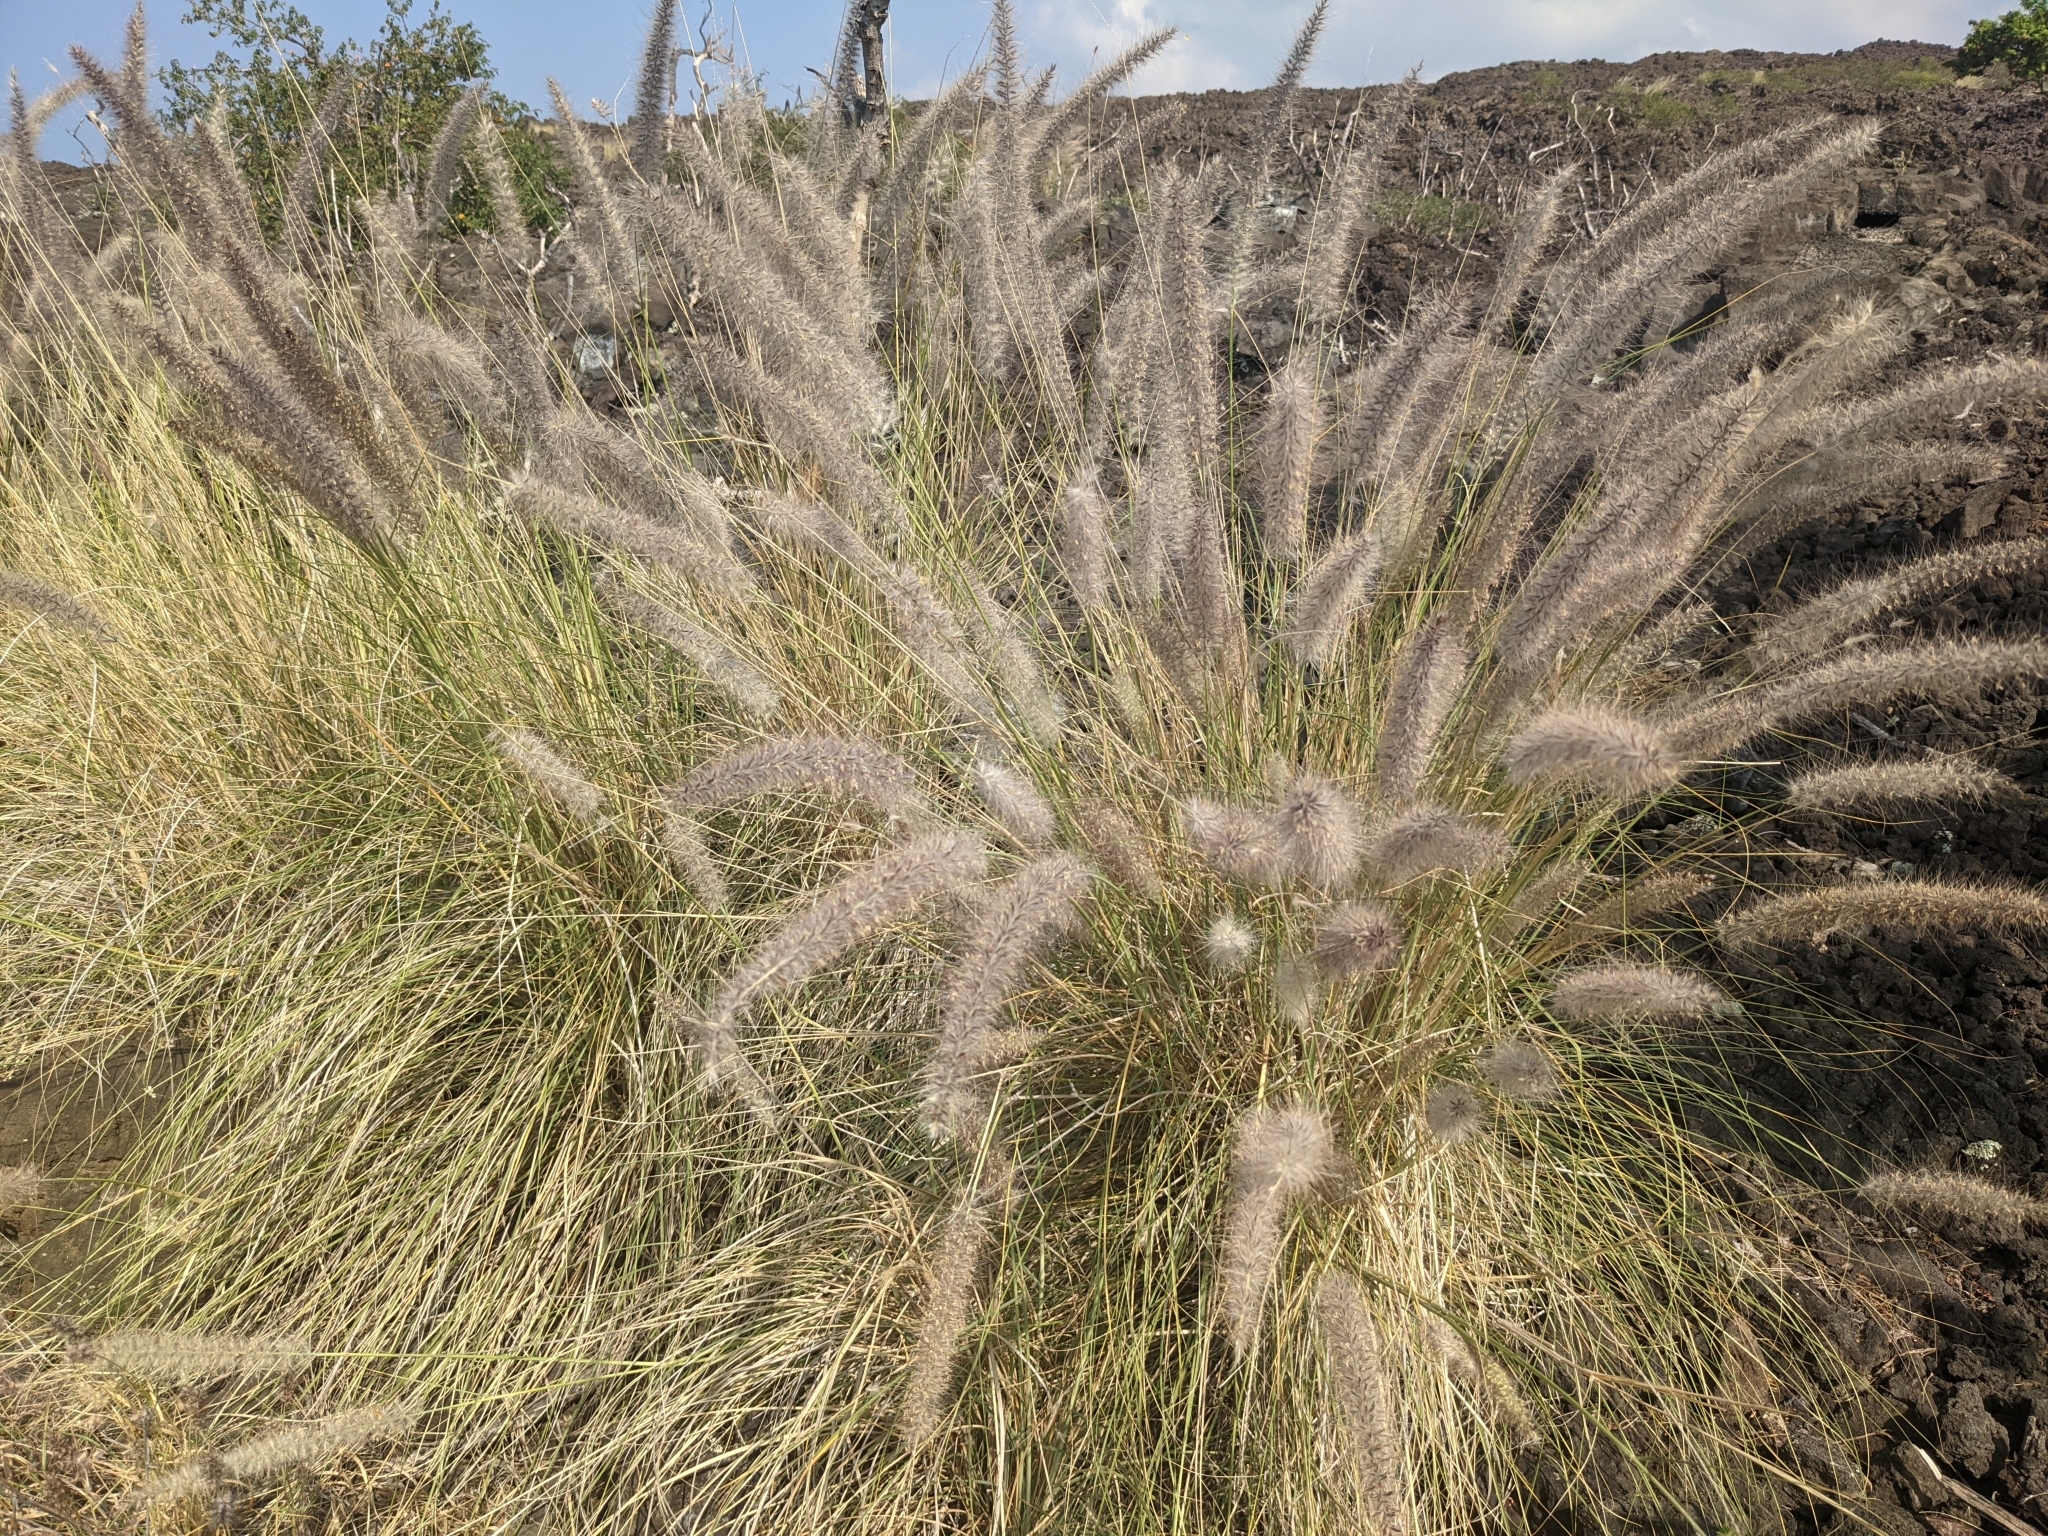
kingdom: Plantae
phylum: Tracheophyta
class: Liliopsida
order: Poales
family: Poaceae
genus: Cenchrus
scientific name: Cenchrus setaceus
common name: Crimson fountaingrass
